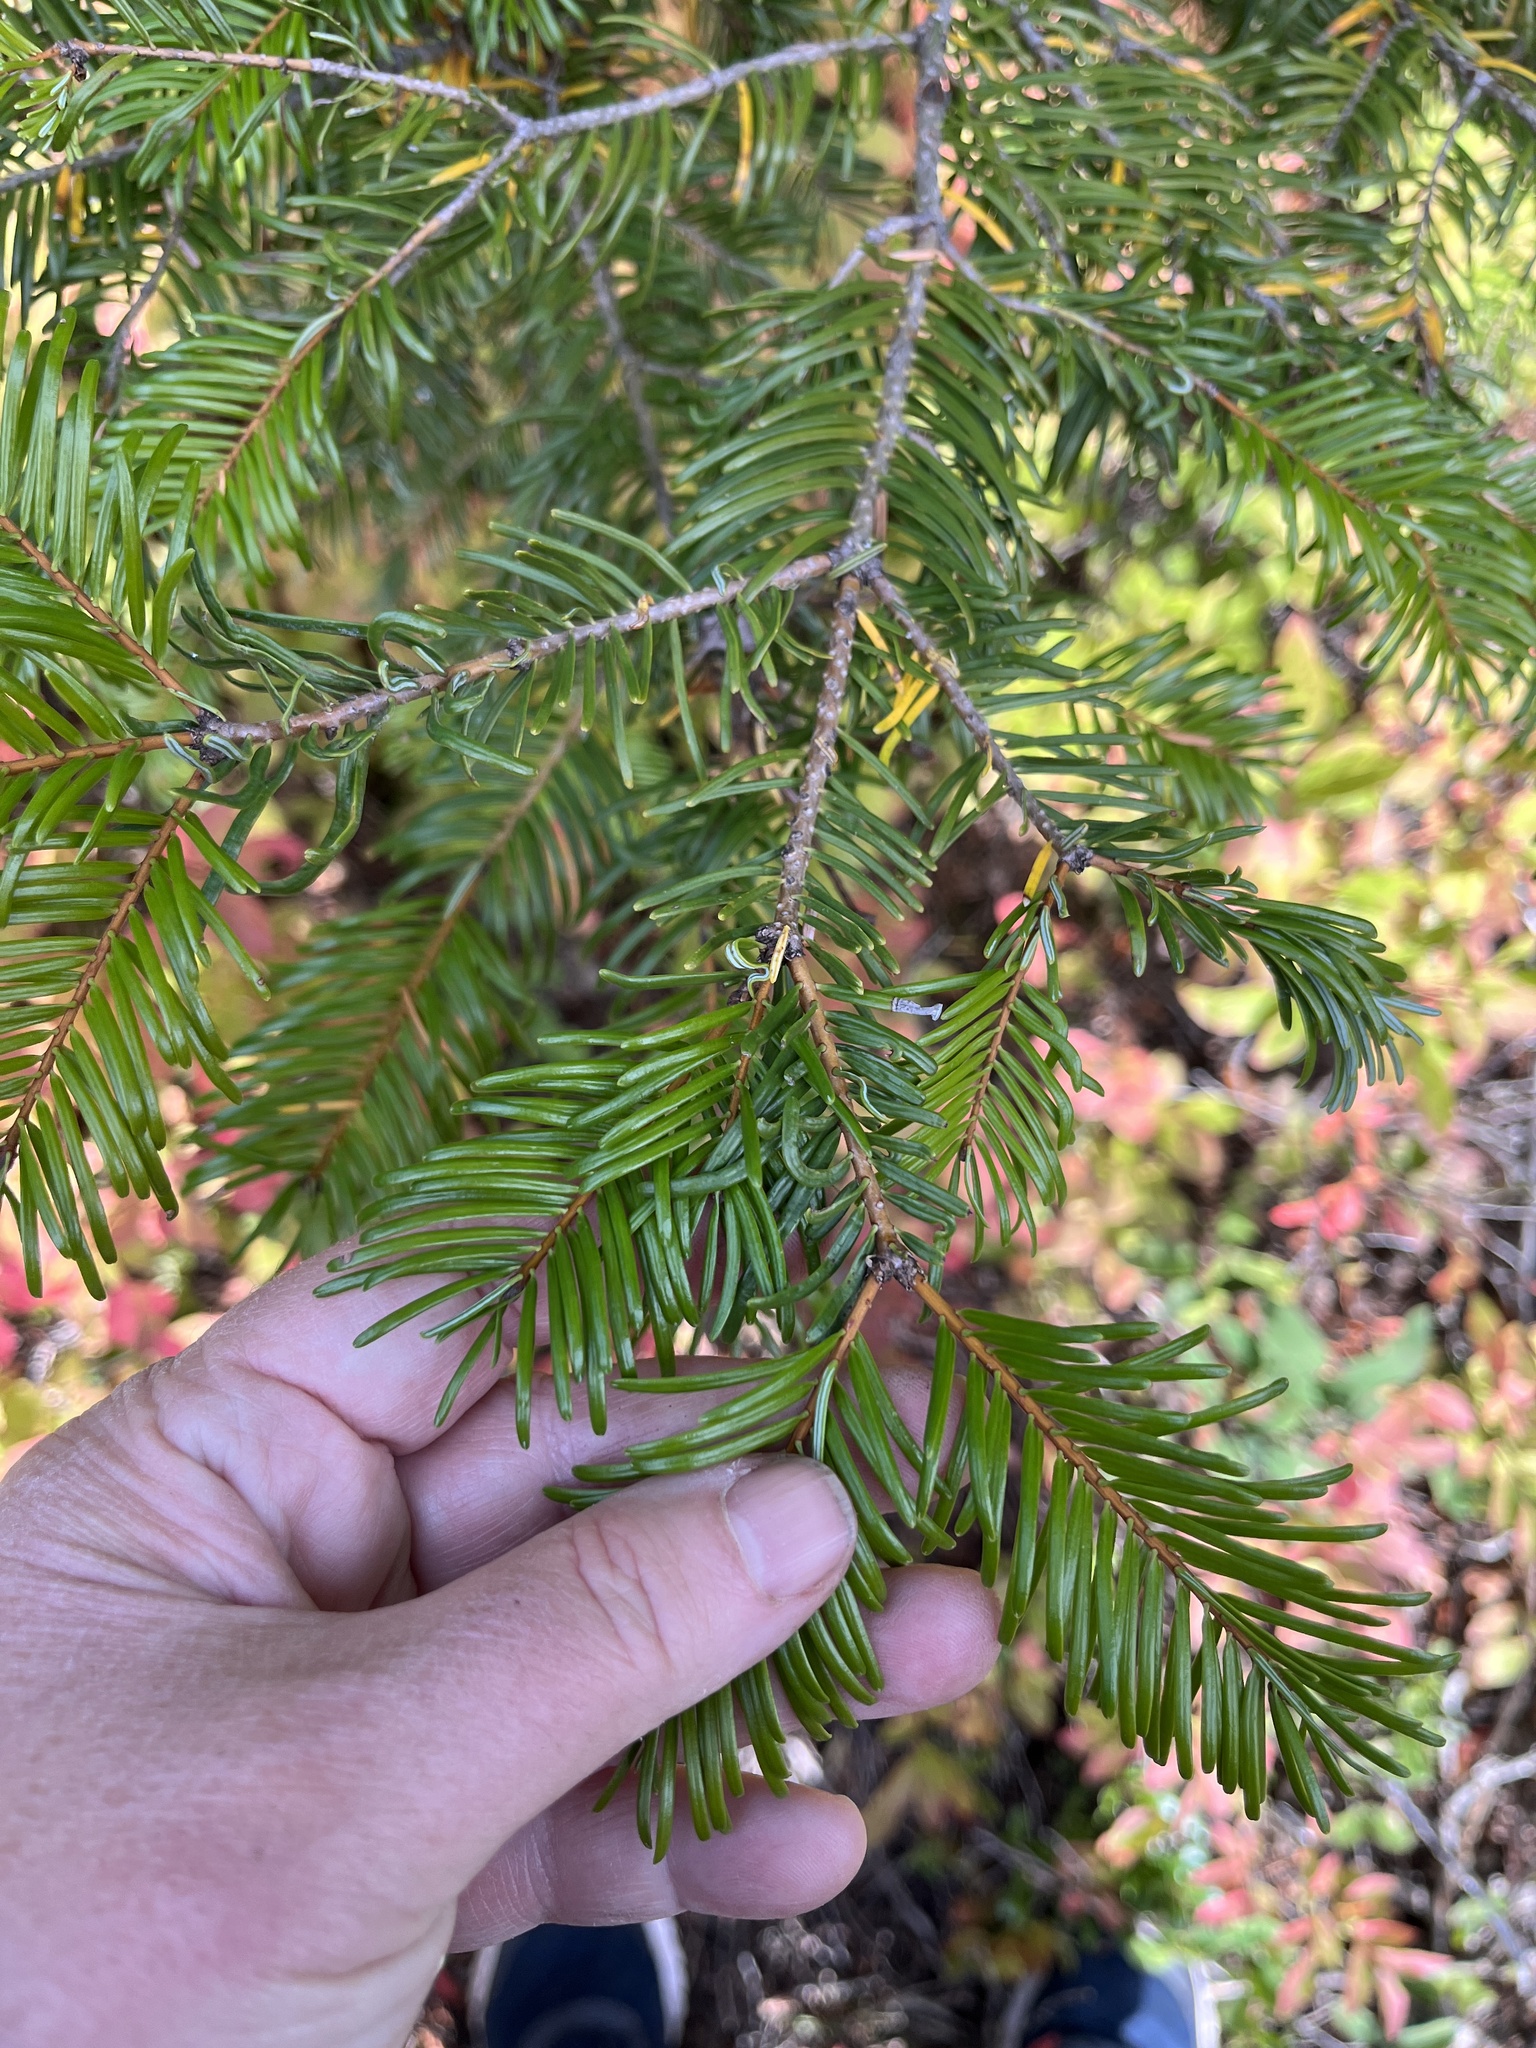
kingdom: Plantae
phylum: Tracheophyta
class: Pinopsida
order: Pinales
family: Pinaceae
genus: Abies
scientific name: Abies grandis
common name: Giant fir
